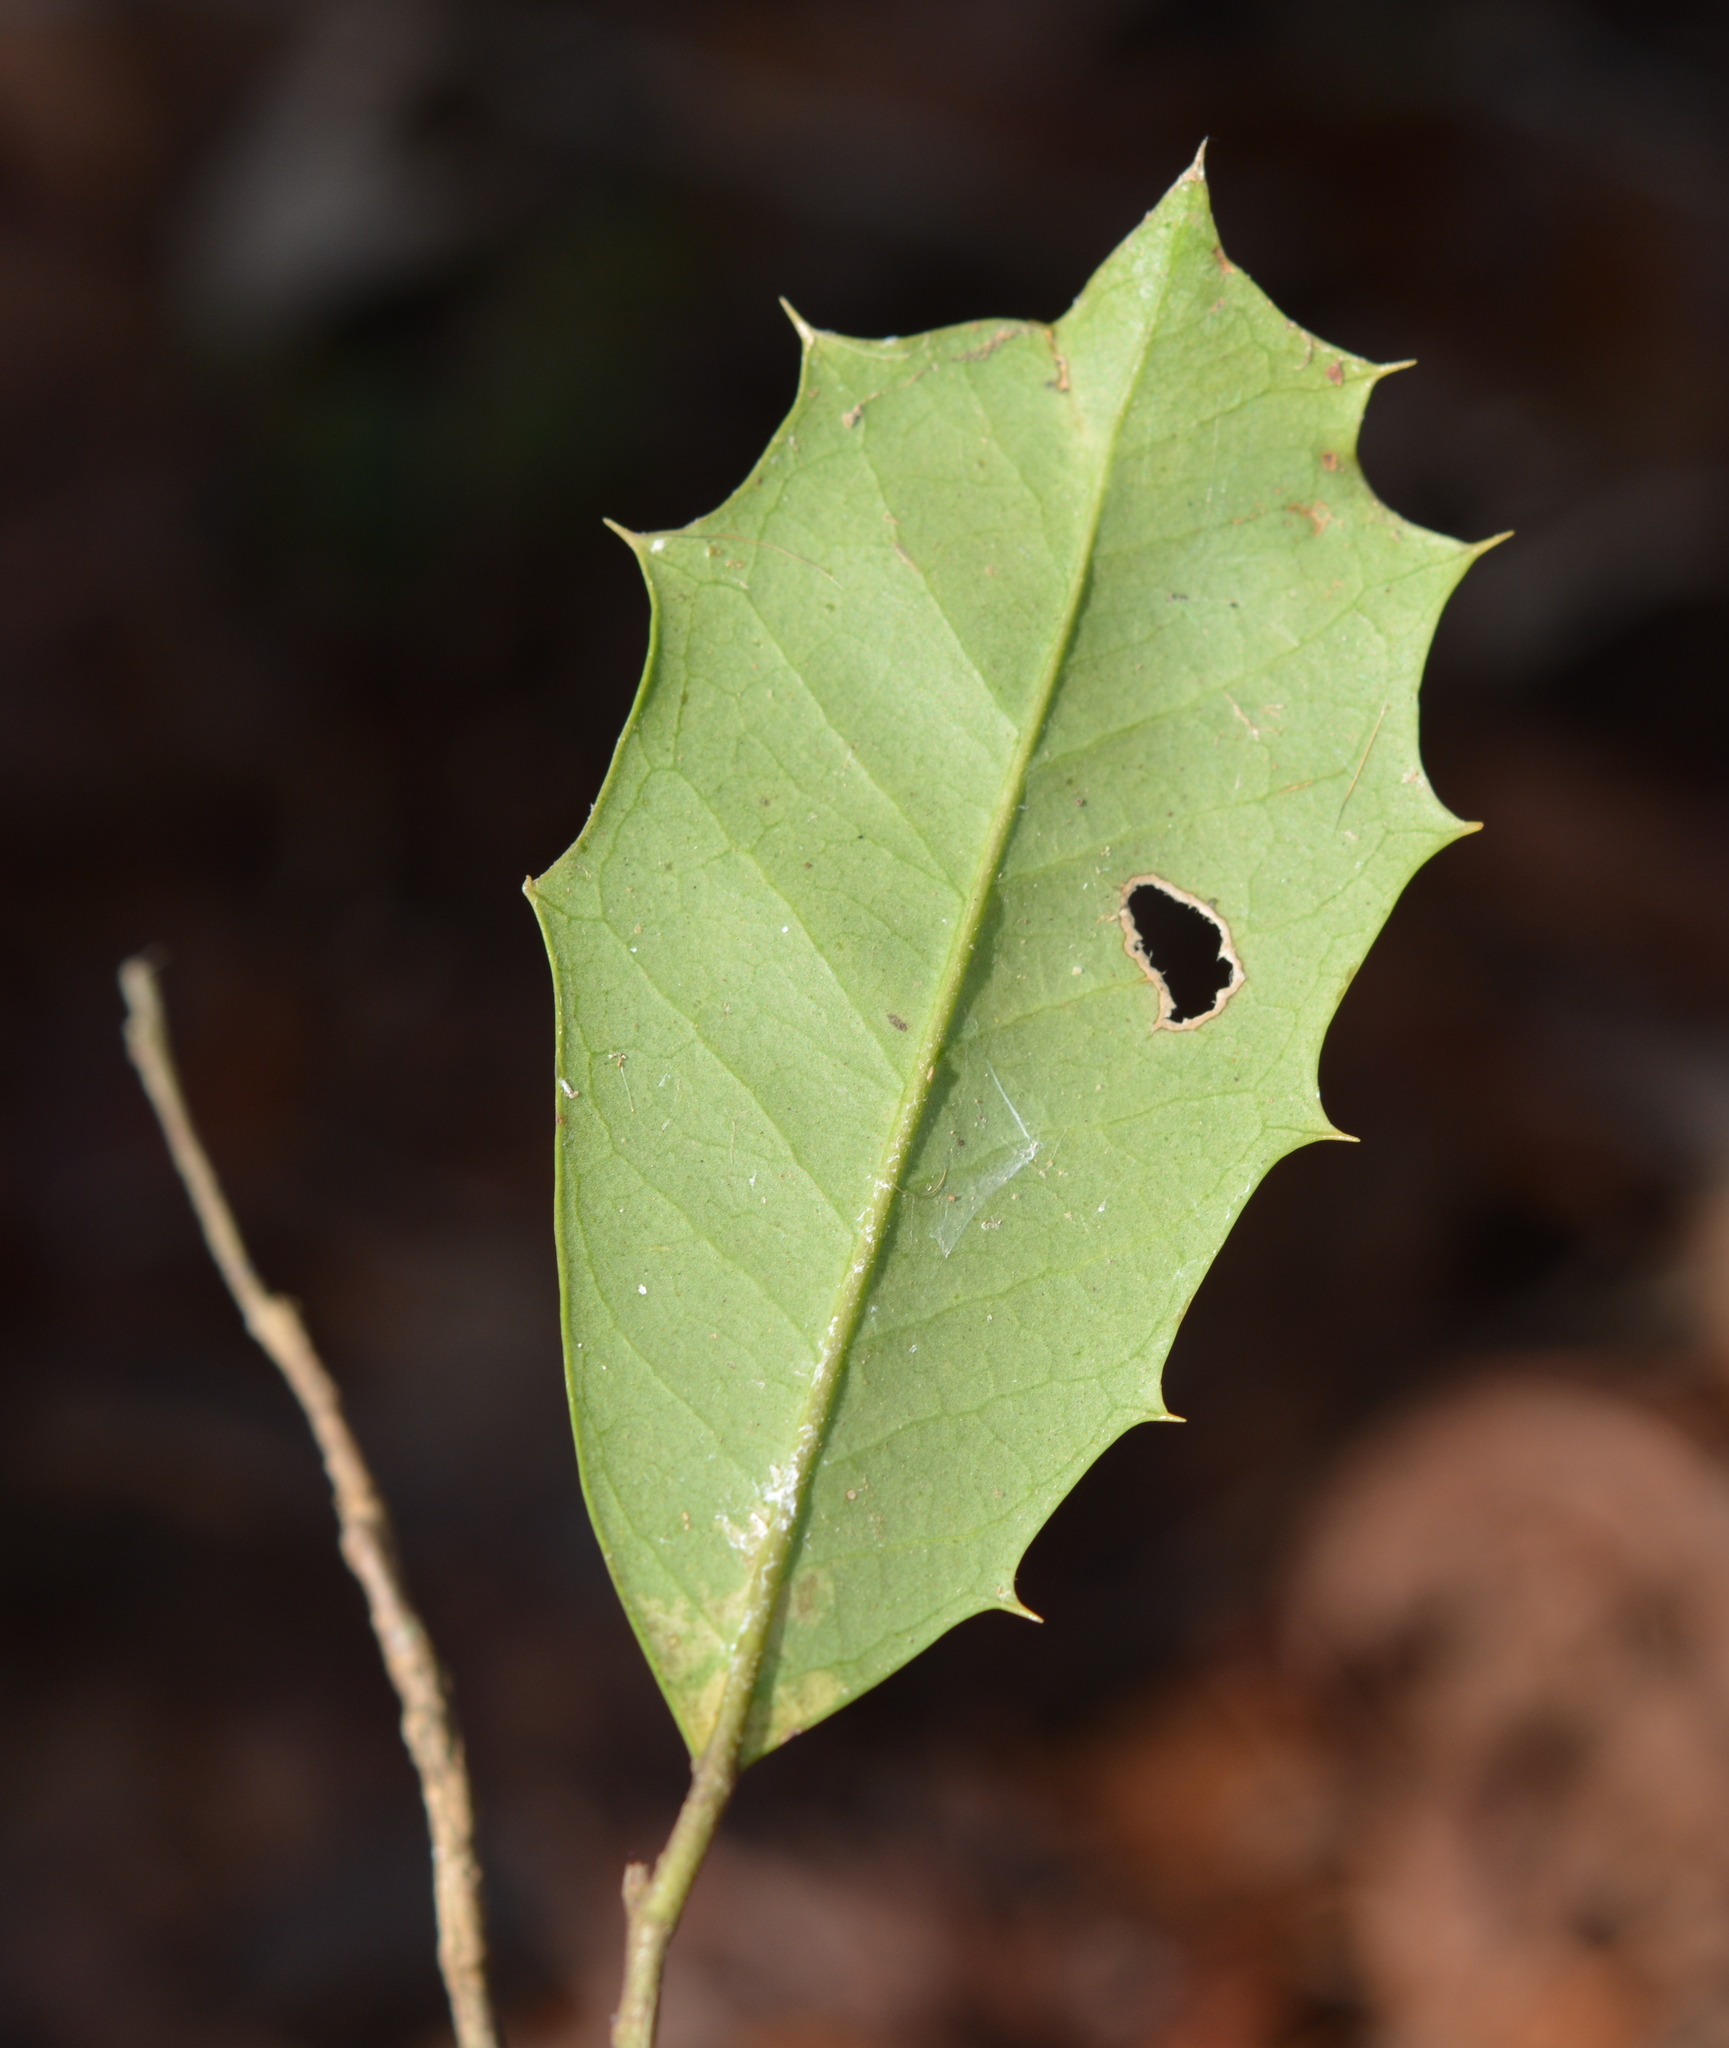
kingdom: Plantae
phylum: Tracheophyta
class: Magnoliopsida
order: Aquifoliales
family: Aquifoliaceae
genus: Ilex
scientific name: Ilex opaca
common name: American holly
